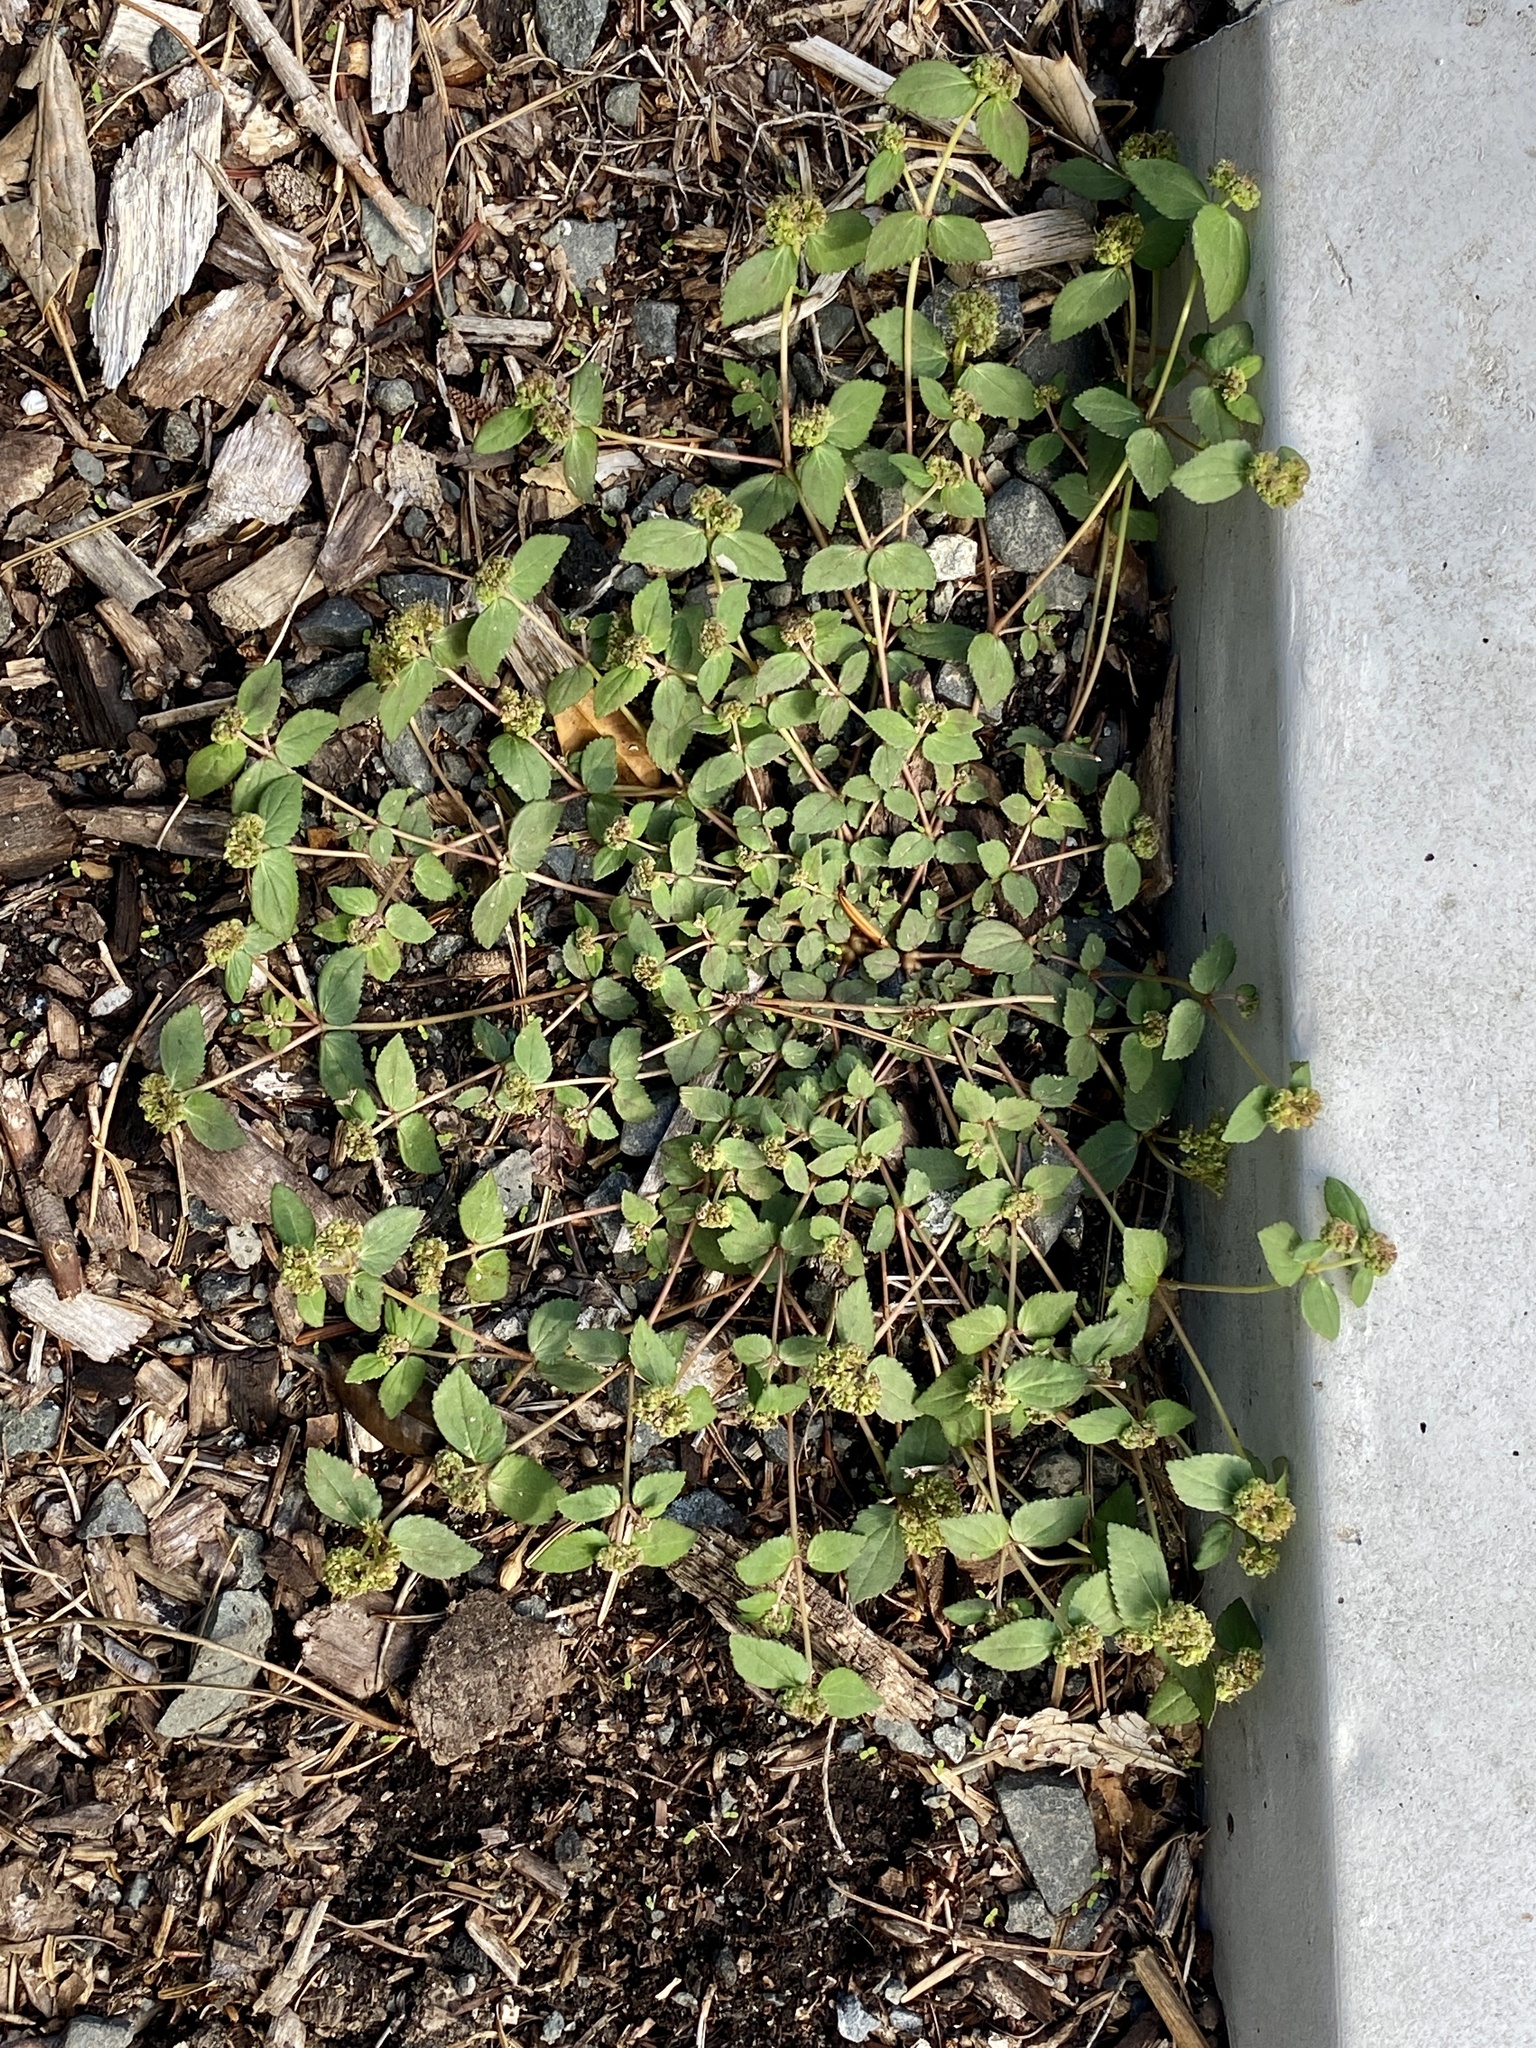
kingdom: Plantae
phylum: Tracheophyta
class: Magnoliopsida
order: Malpighiales
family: Euphorbiaceae
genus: Euphorbia
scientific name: Euphorbia ophthalmica
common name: Florida hammock sandmat
